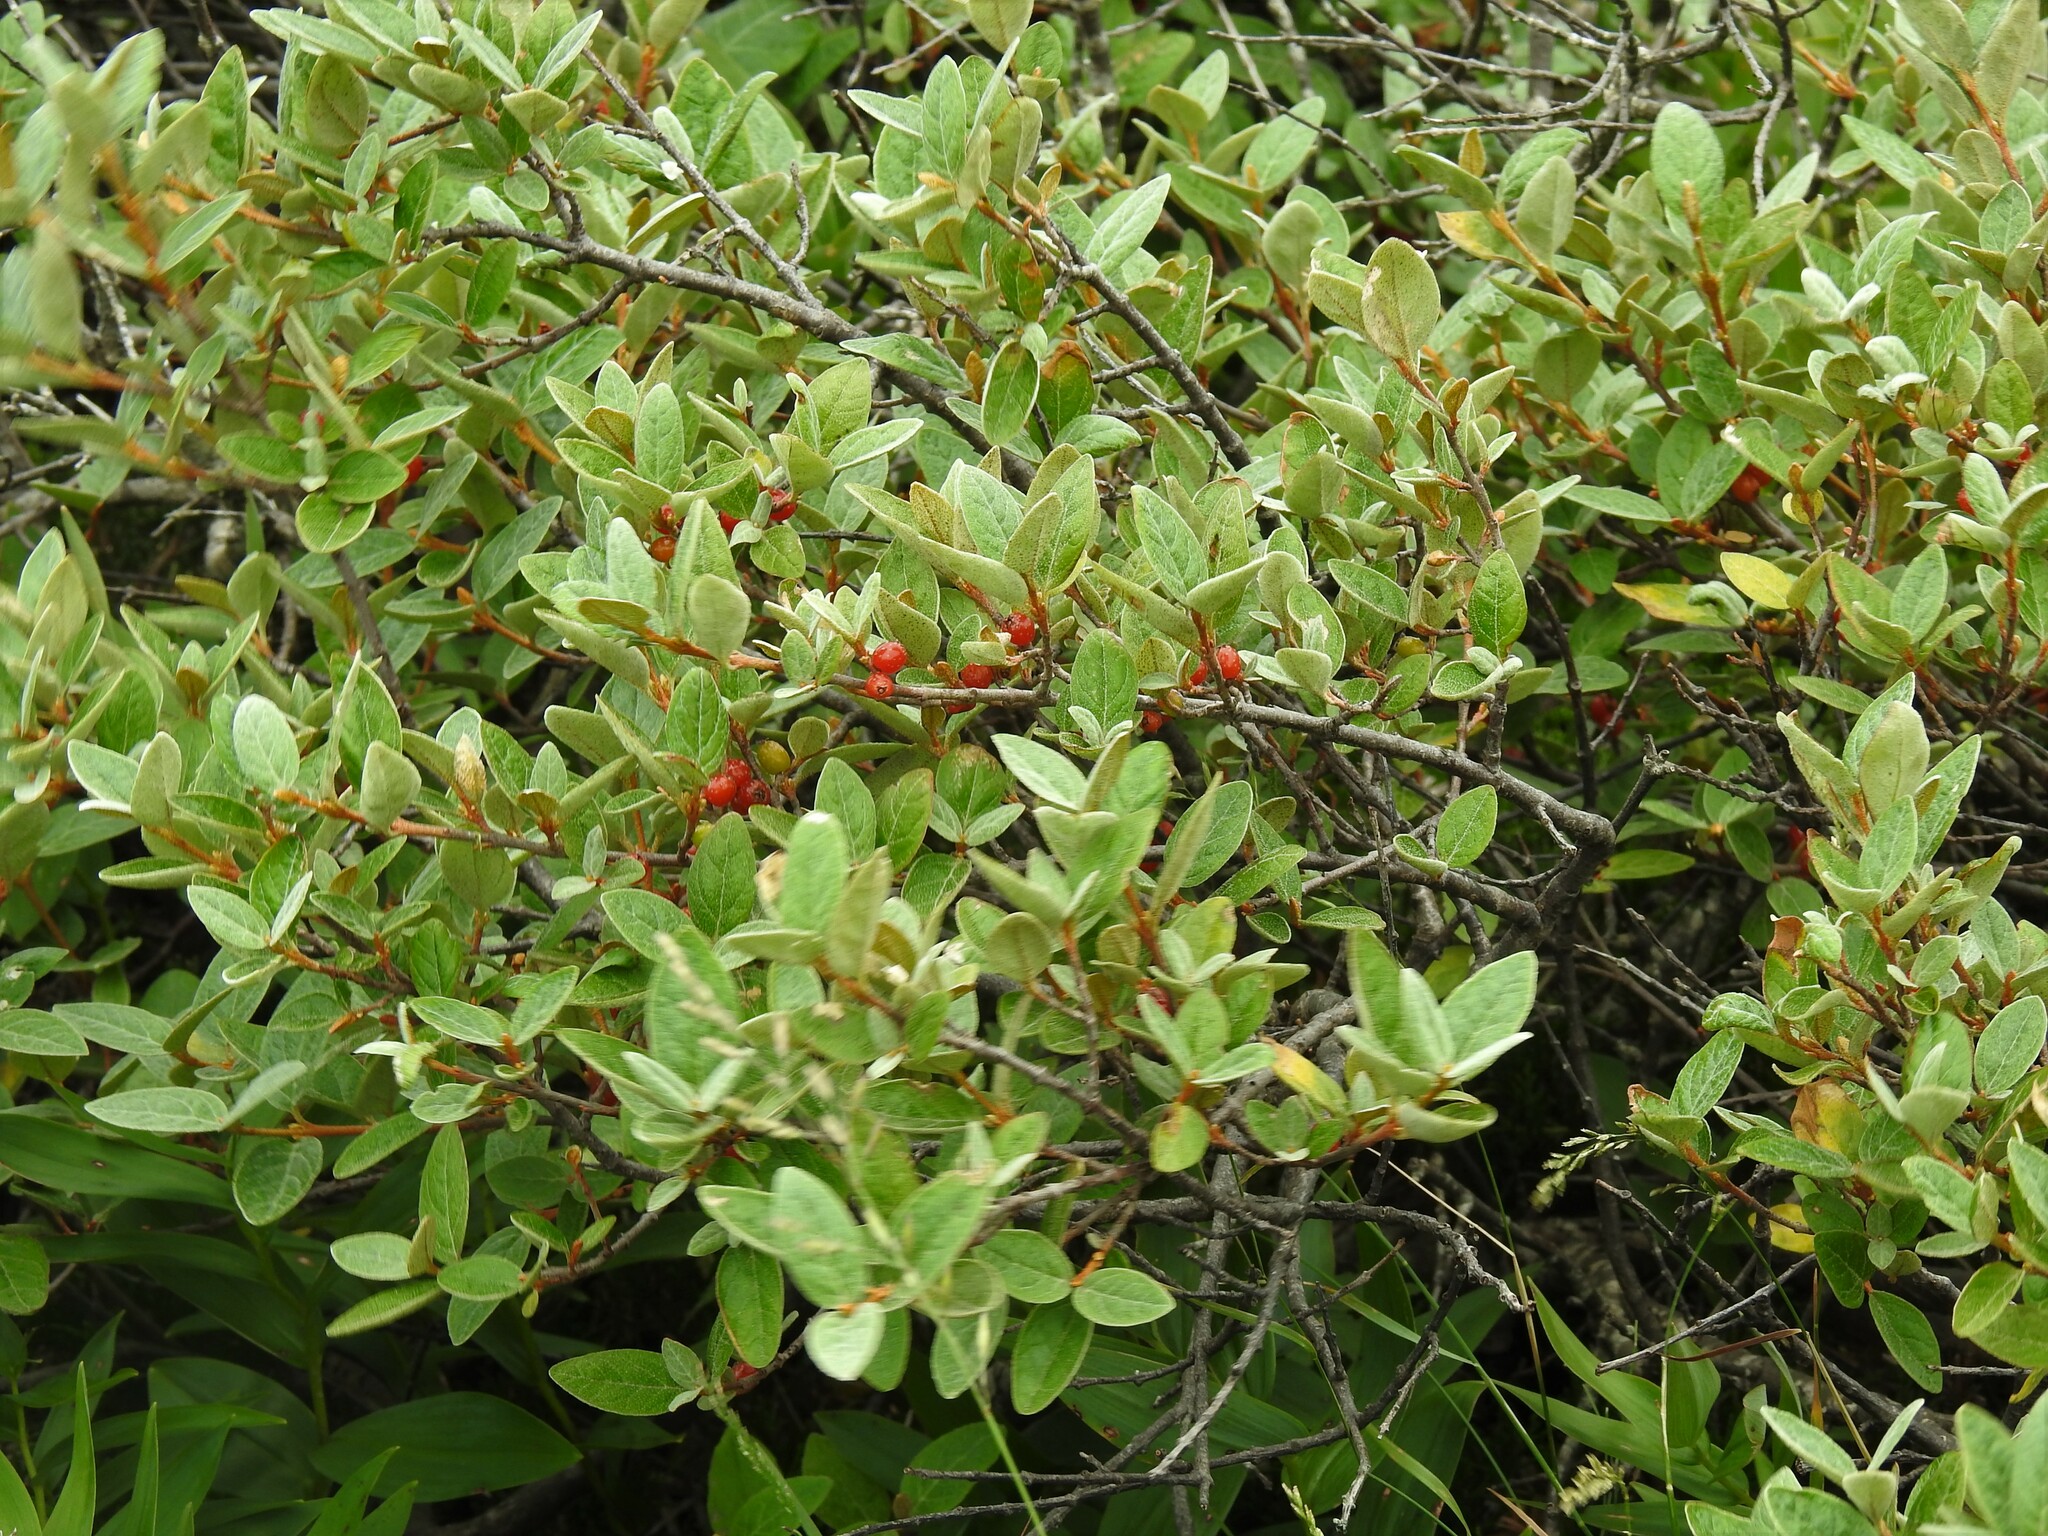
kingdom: Plantae
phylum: Tracheophyta
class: Magnoliopsida
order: Rosales
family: Elaeagnaceae
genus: Shepherdia
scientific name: Shepherdia canadensis
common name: Soapberry
